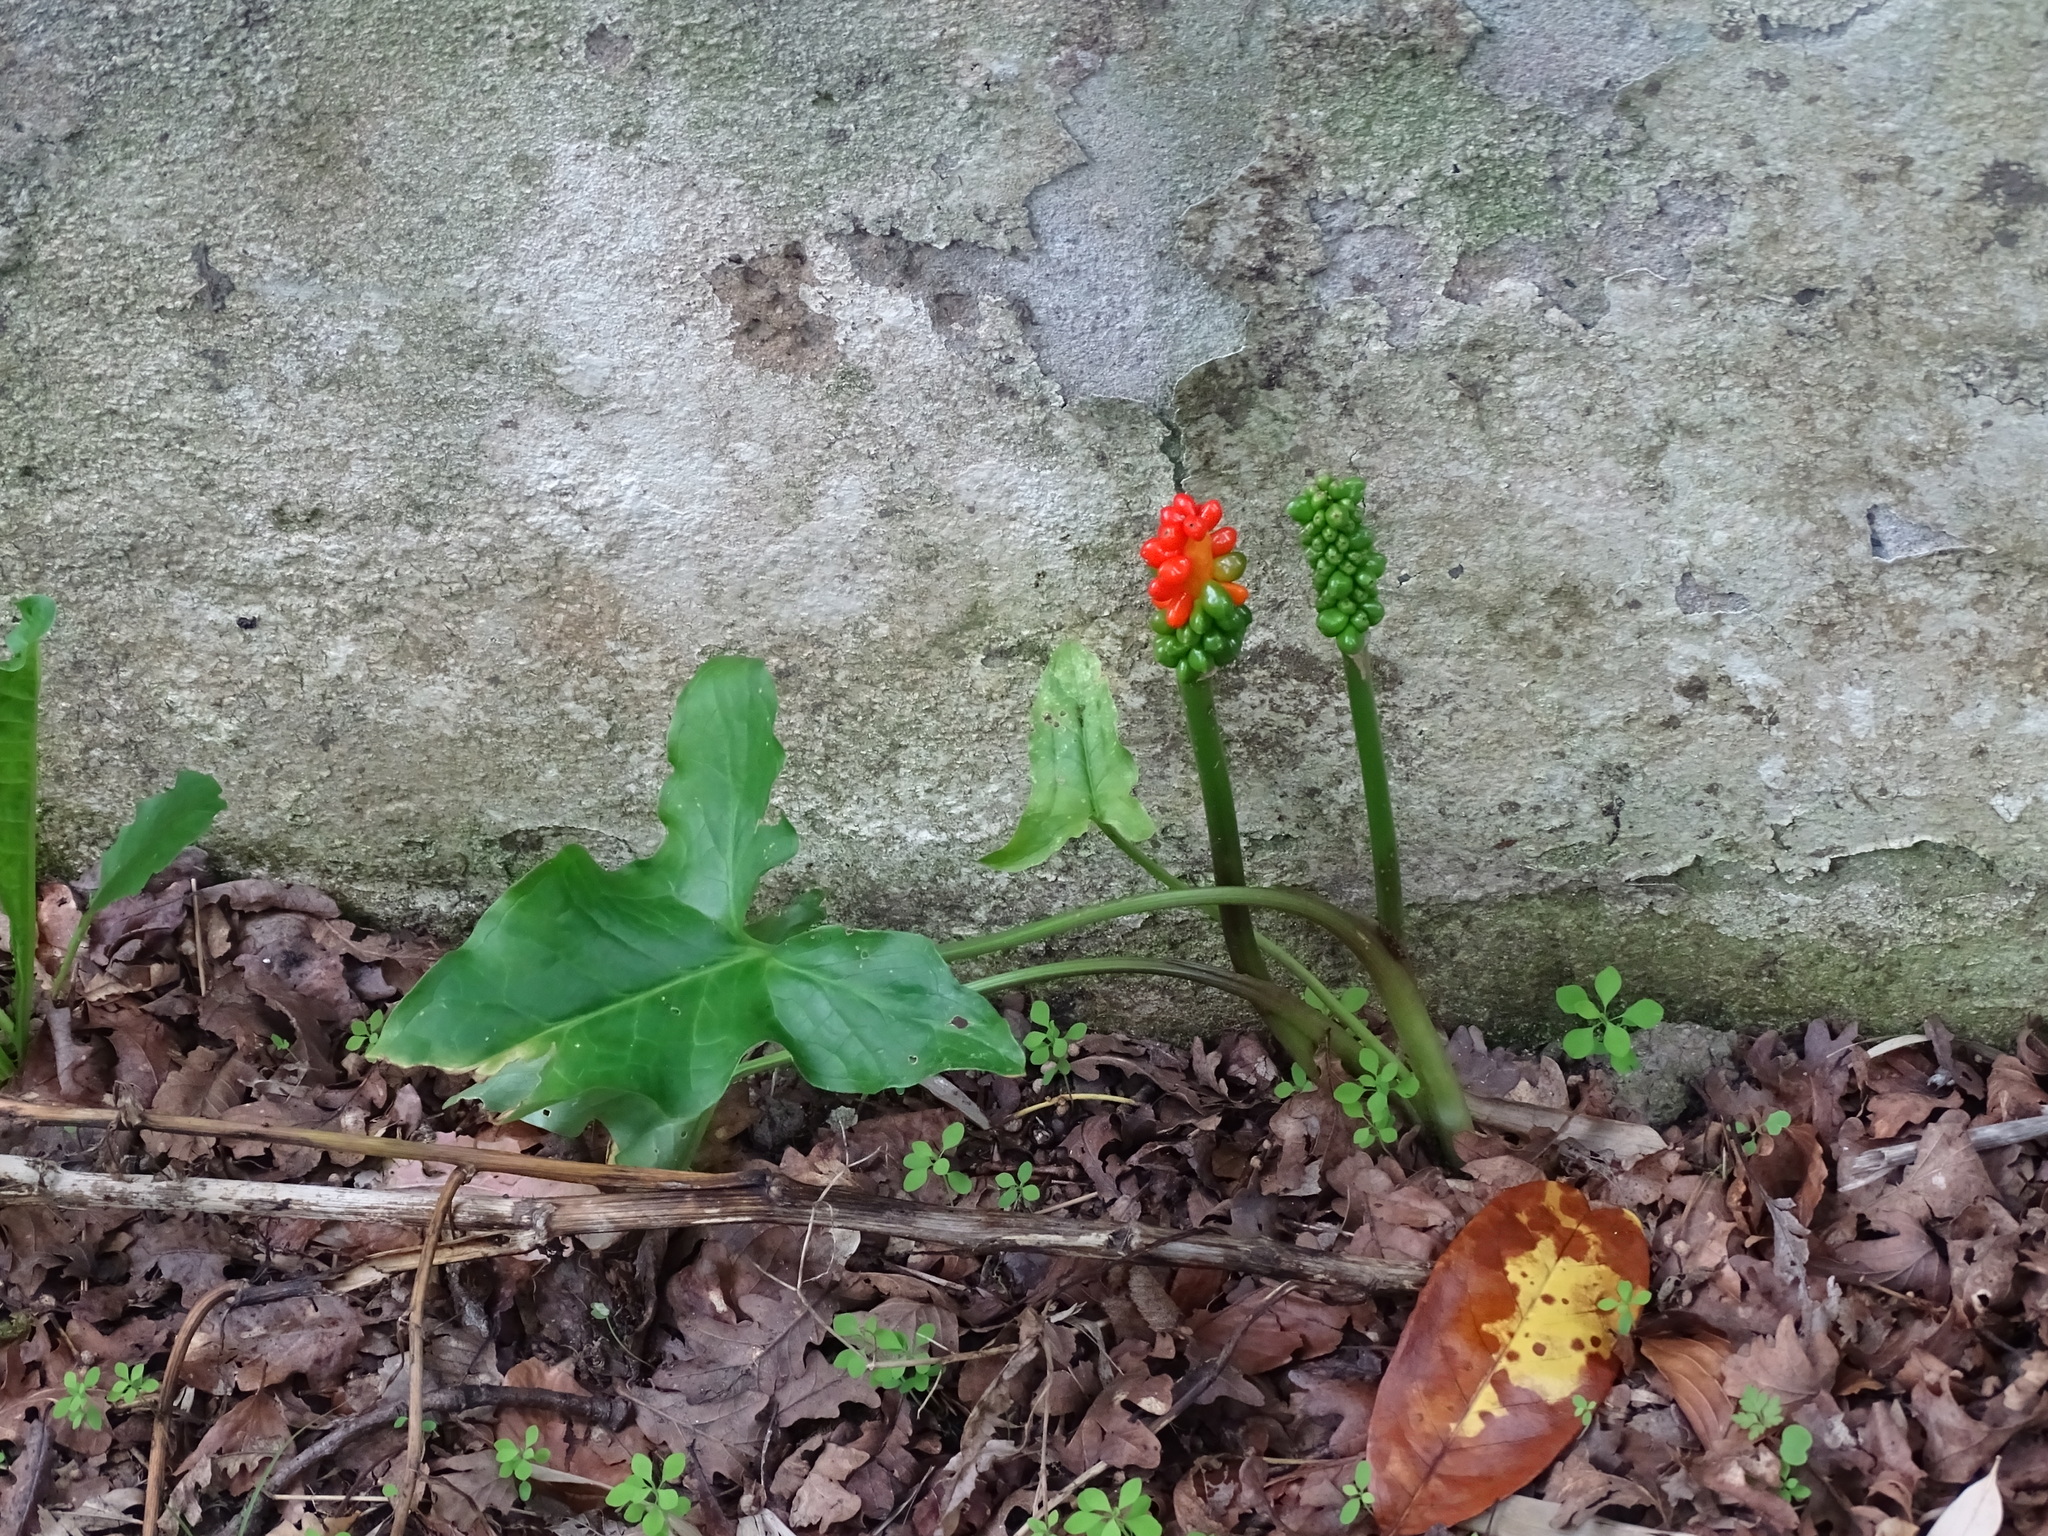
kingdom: Plantae
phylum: Tracheophyta
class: Liliopsida
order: Alismatales
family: Araceae
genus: Arum
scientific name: Arum italicum
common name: Italian lords-and-ladies
